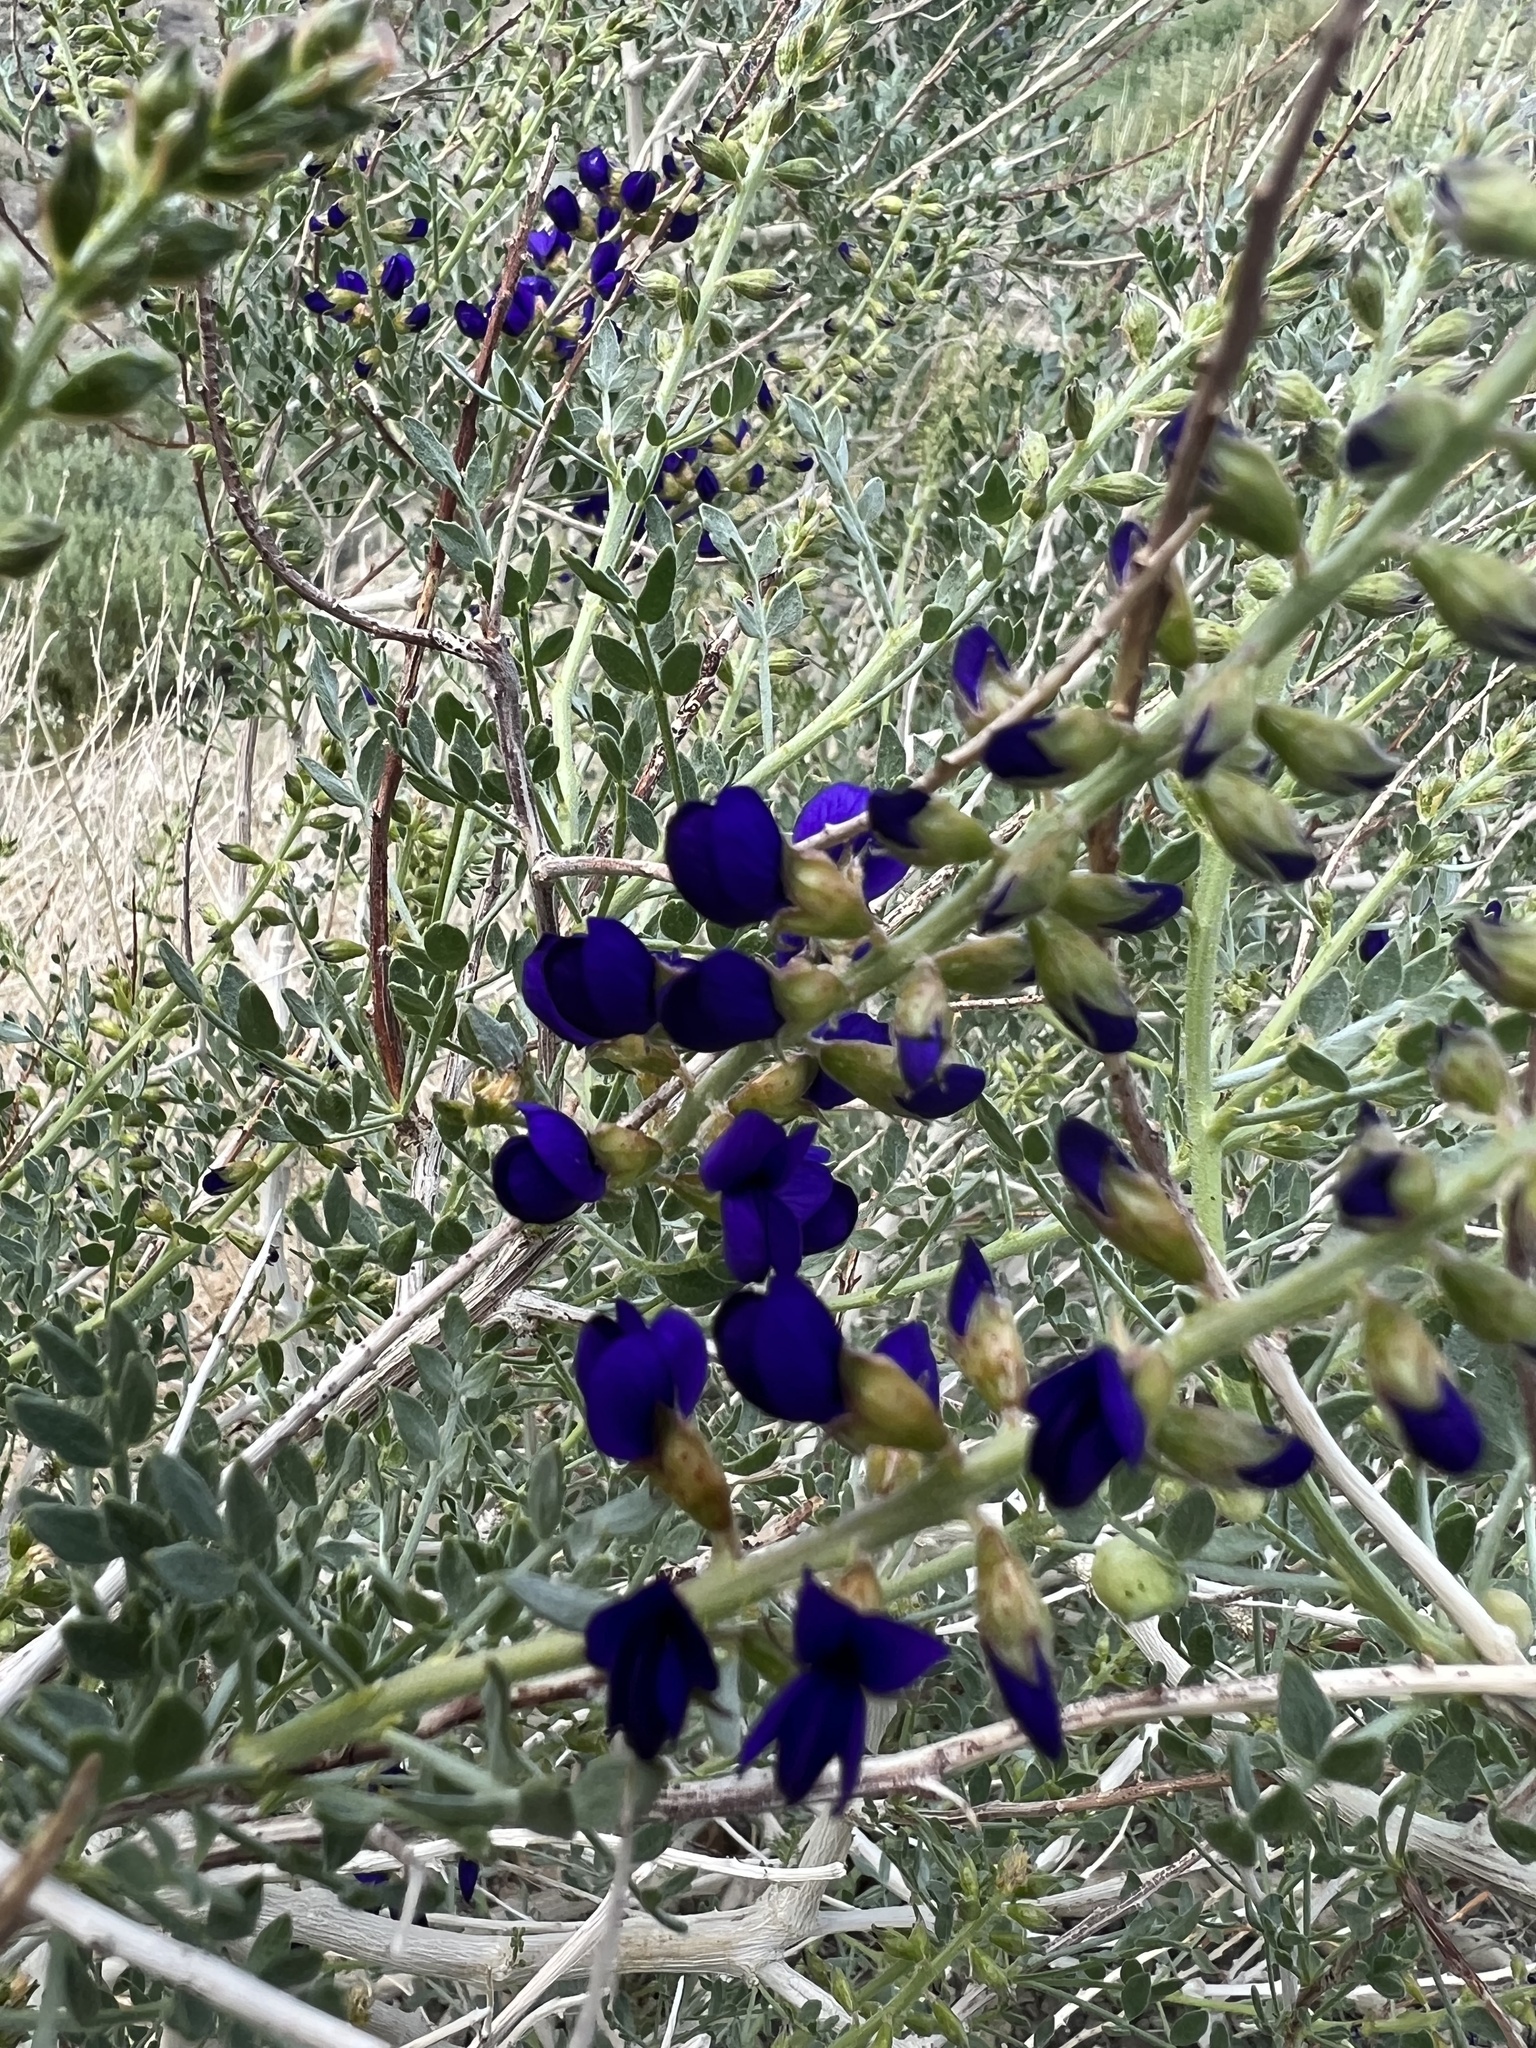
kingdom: Plantae
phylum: Tracheophyta
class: Magnoliopsida
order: Fabales
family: Fabaceae
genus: Psorothamnus
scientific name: Psorothamnus arborescens
